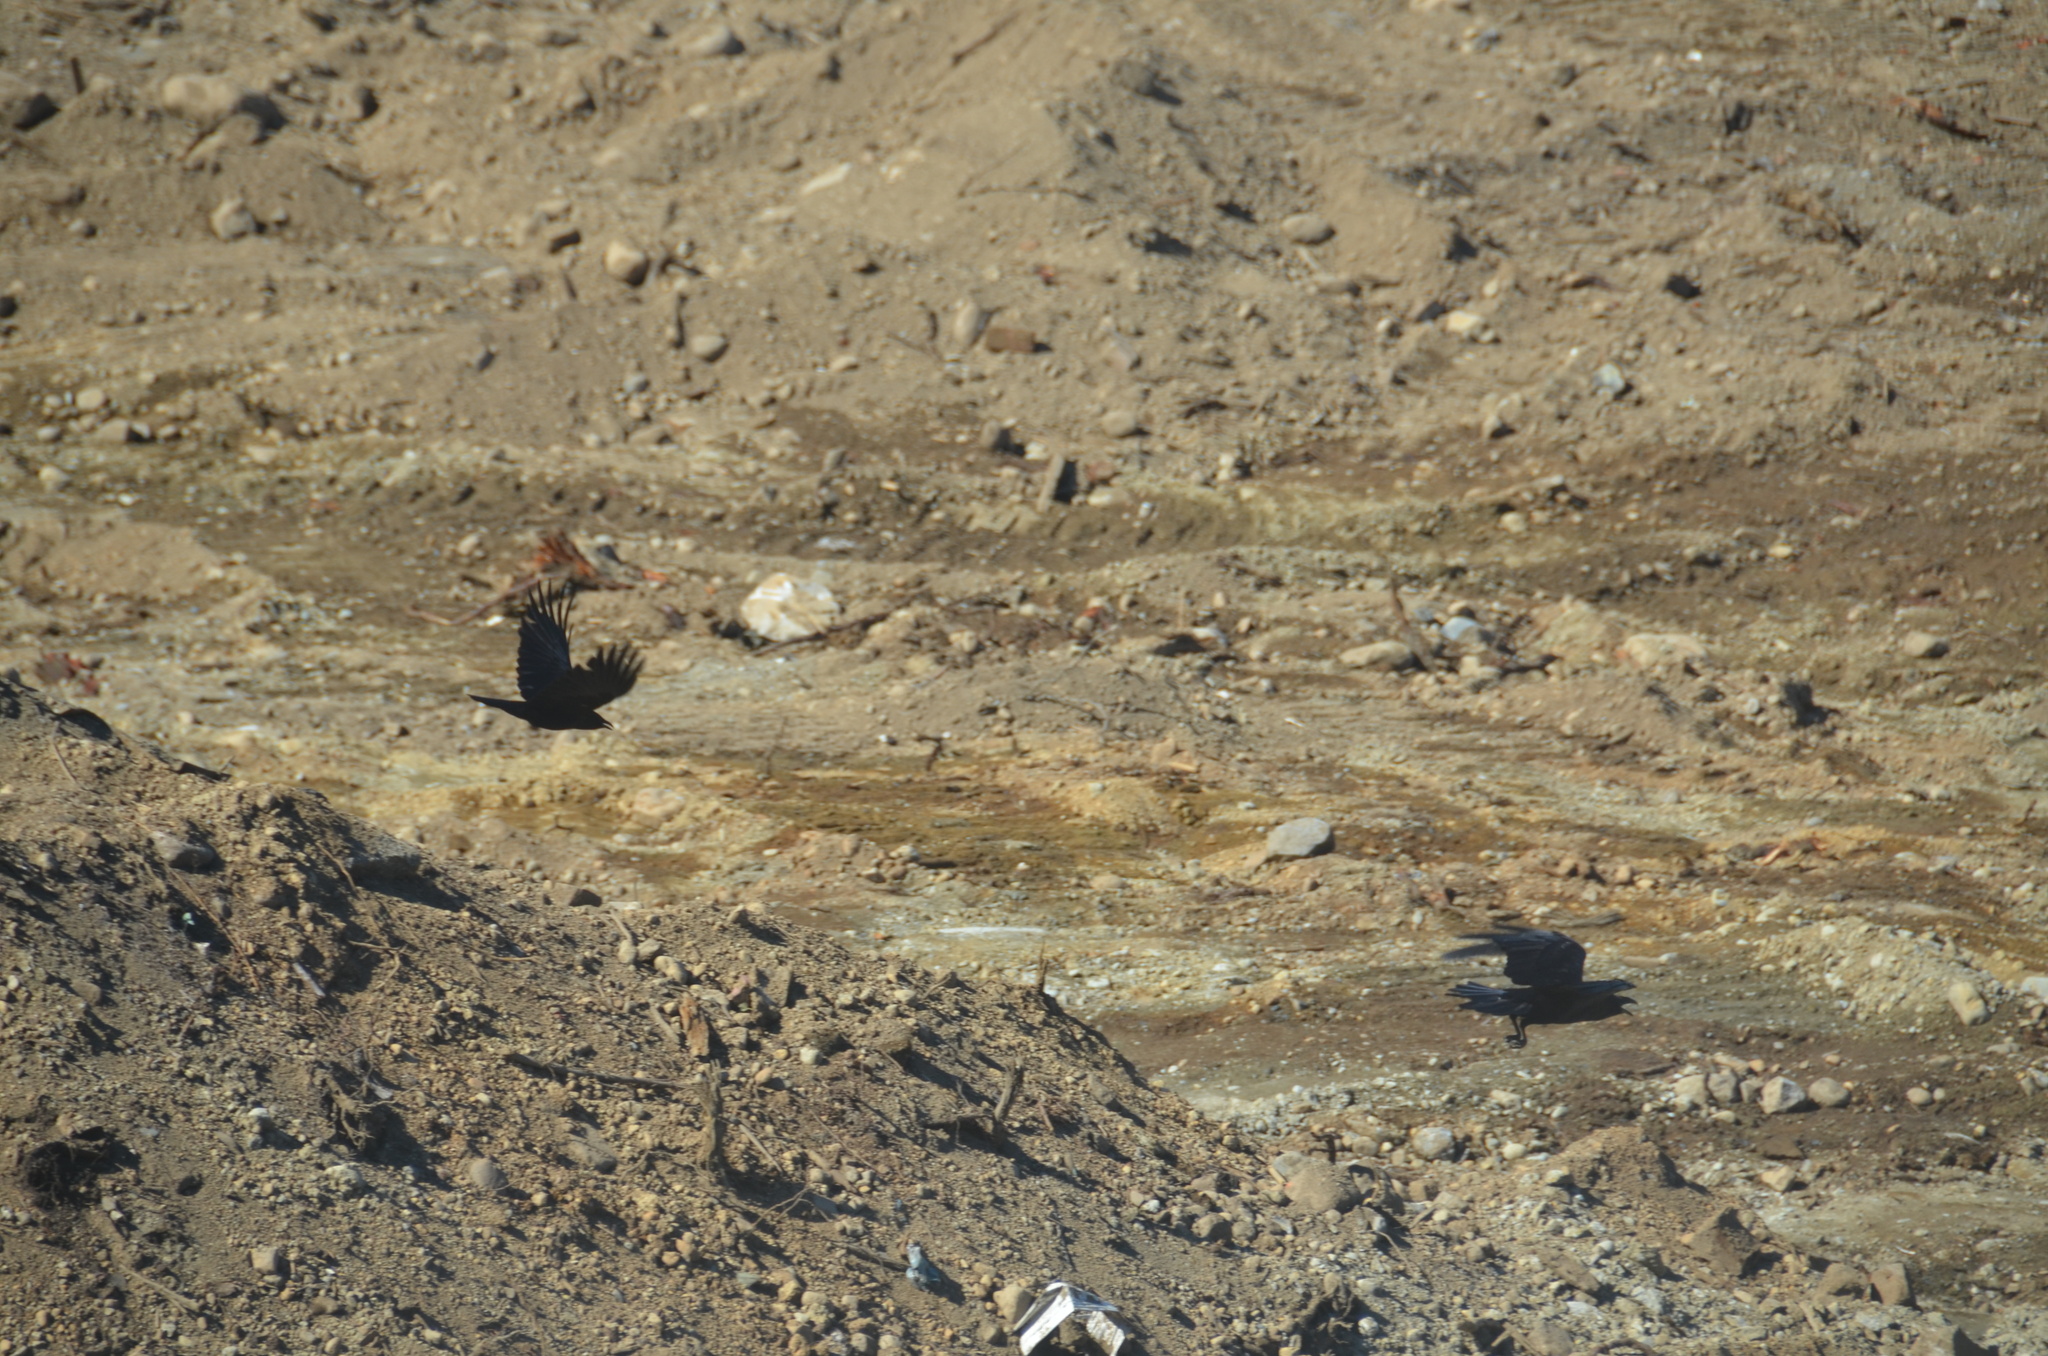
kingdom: Animalia
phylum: Chordata
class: Aves
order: Passeriformes
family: Corvidae
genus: Corvus
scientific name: Corvus corax
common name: Common raven
